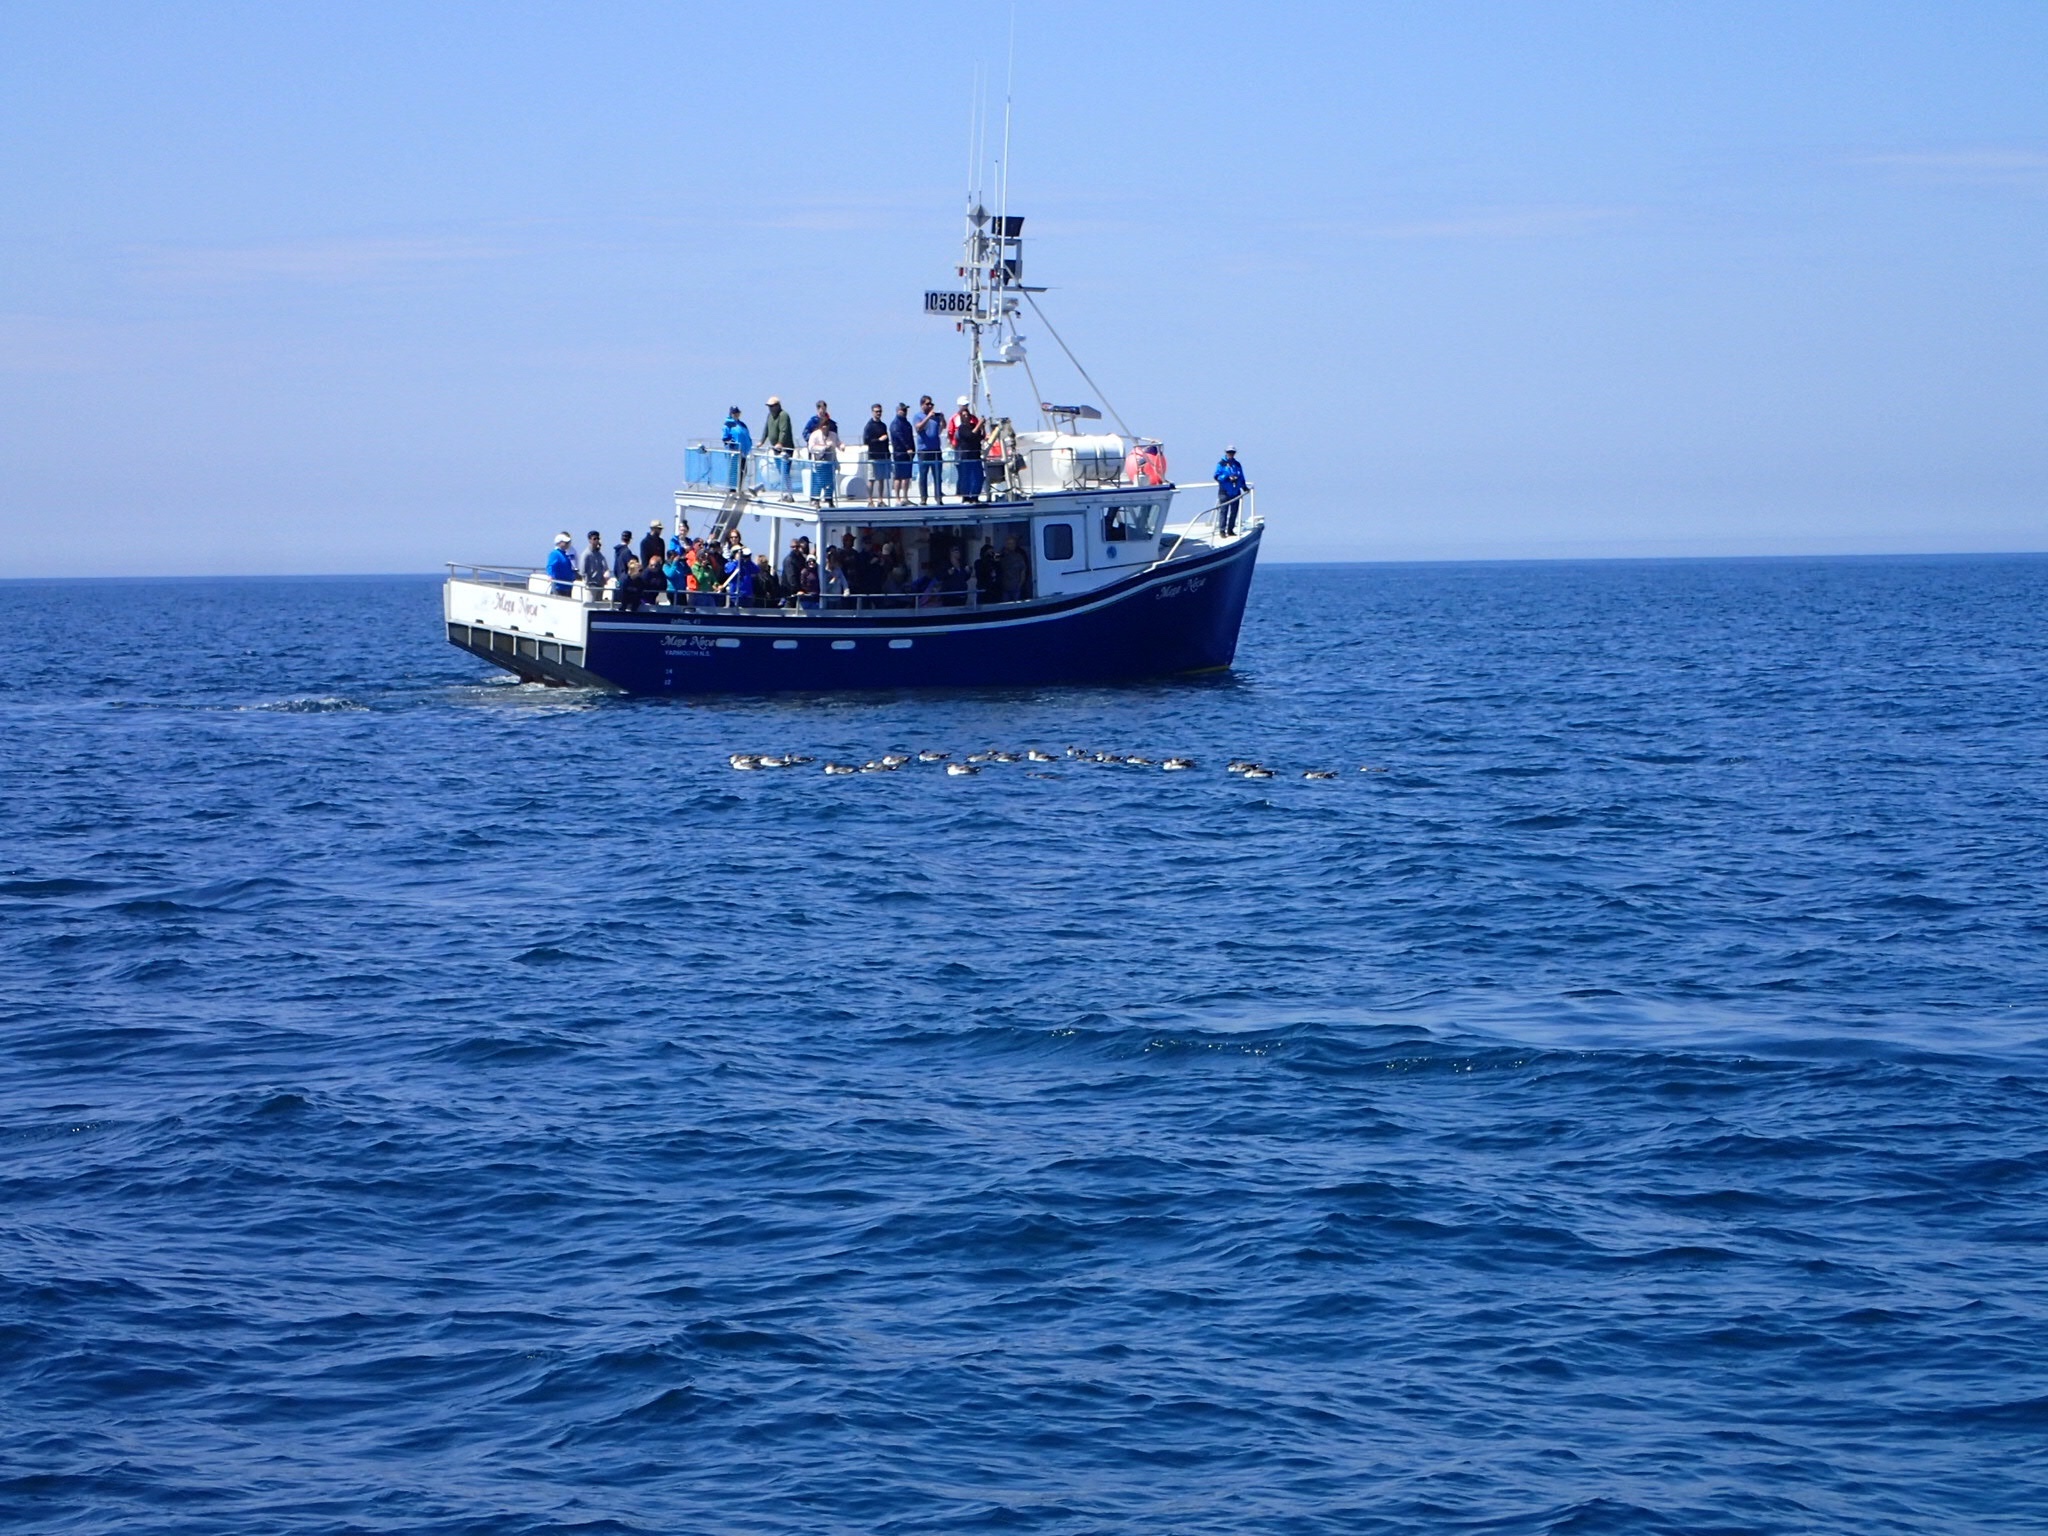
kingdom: Animalia
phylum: Chordata
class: Aves
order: Procellariiformes
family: Procellariidae
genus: Puffinus
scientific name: Puffinus gravis
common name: Great shearwater
